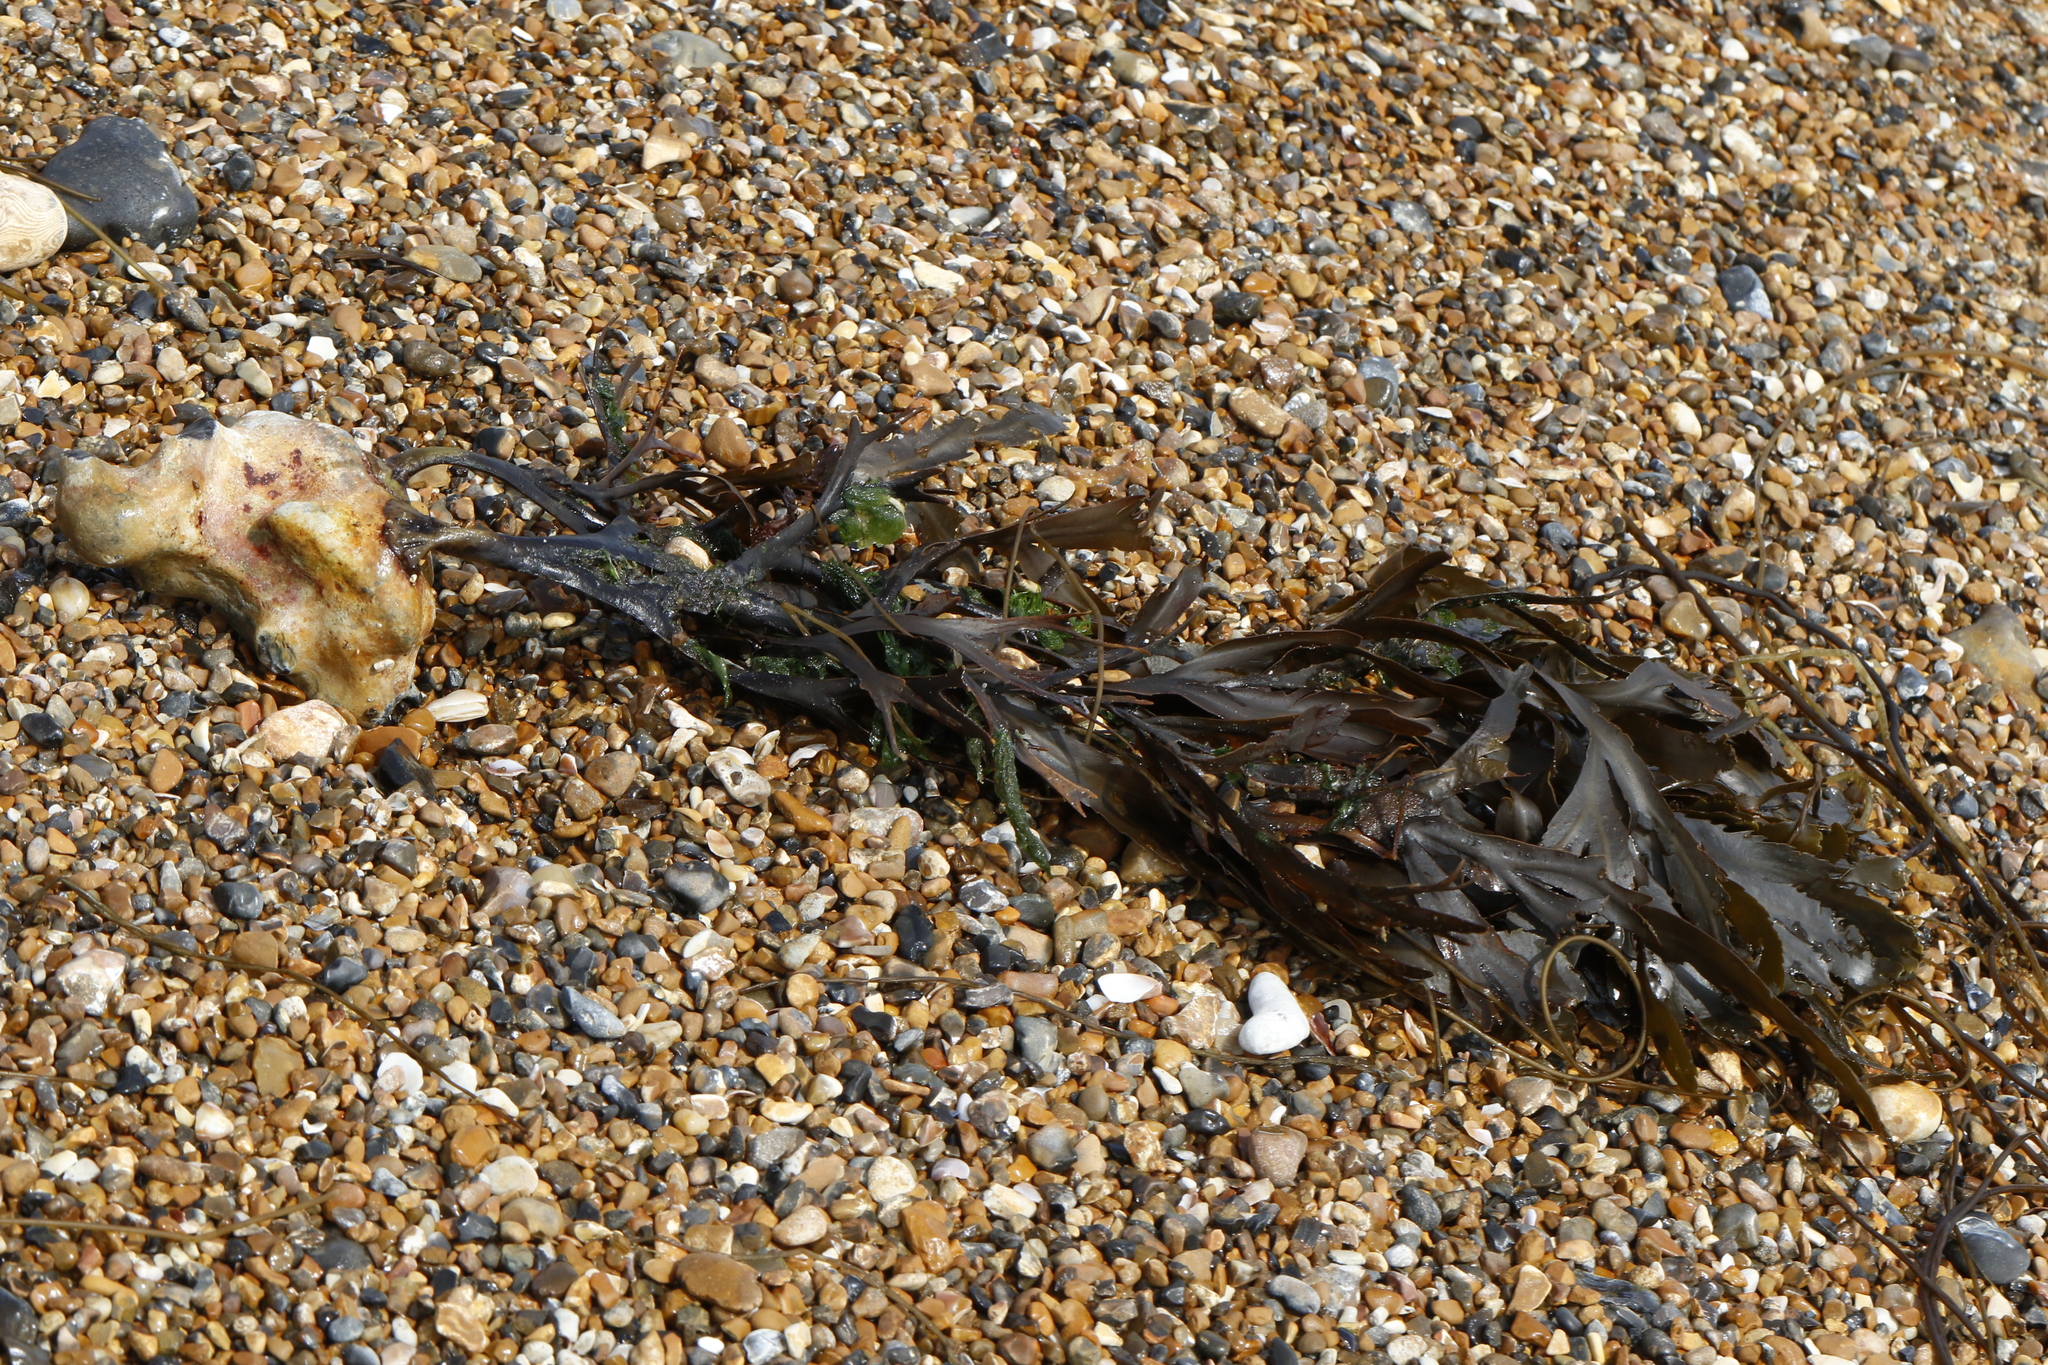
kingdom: Chromista
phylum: Ochrophyta
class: Phaeophyceae
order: Fucales
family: Fucaceae
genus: Fucus
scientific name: Fucus serratus
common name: Toothed wrack
